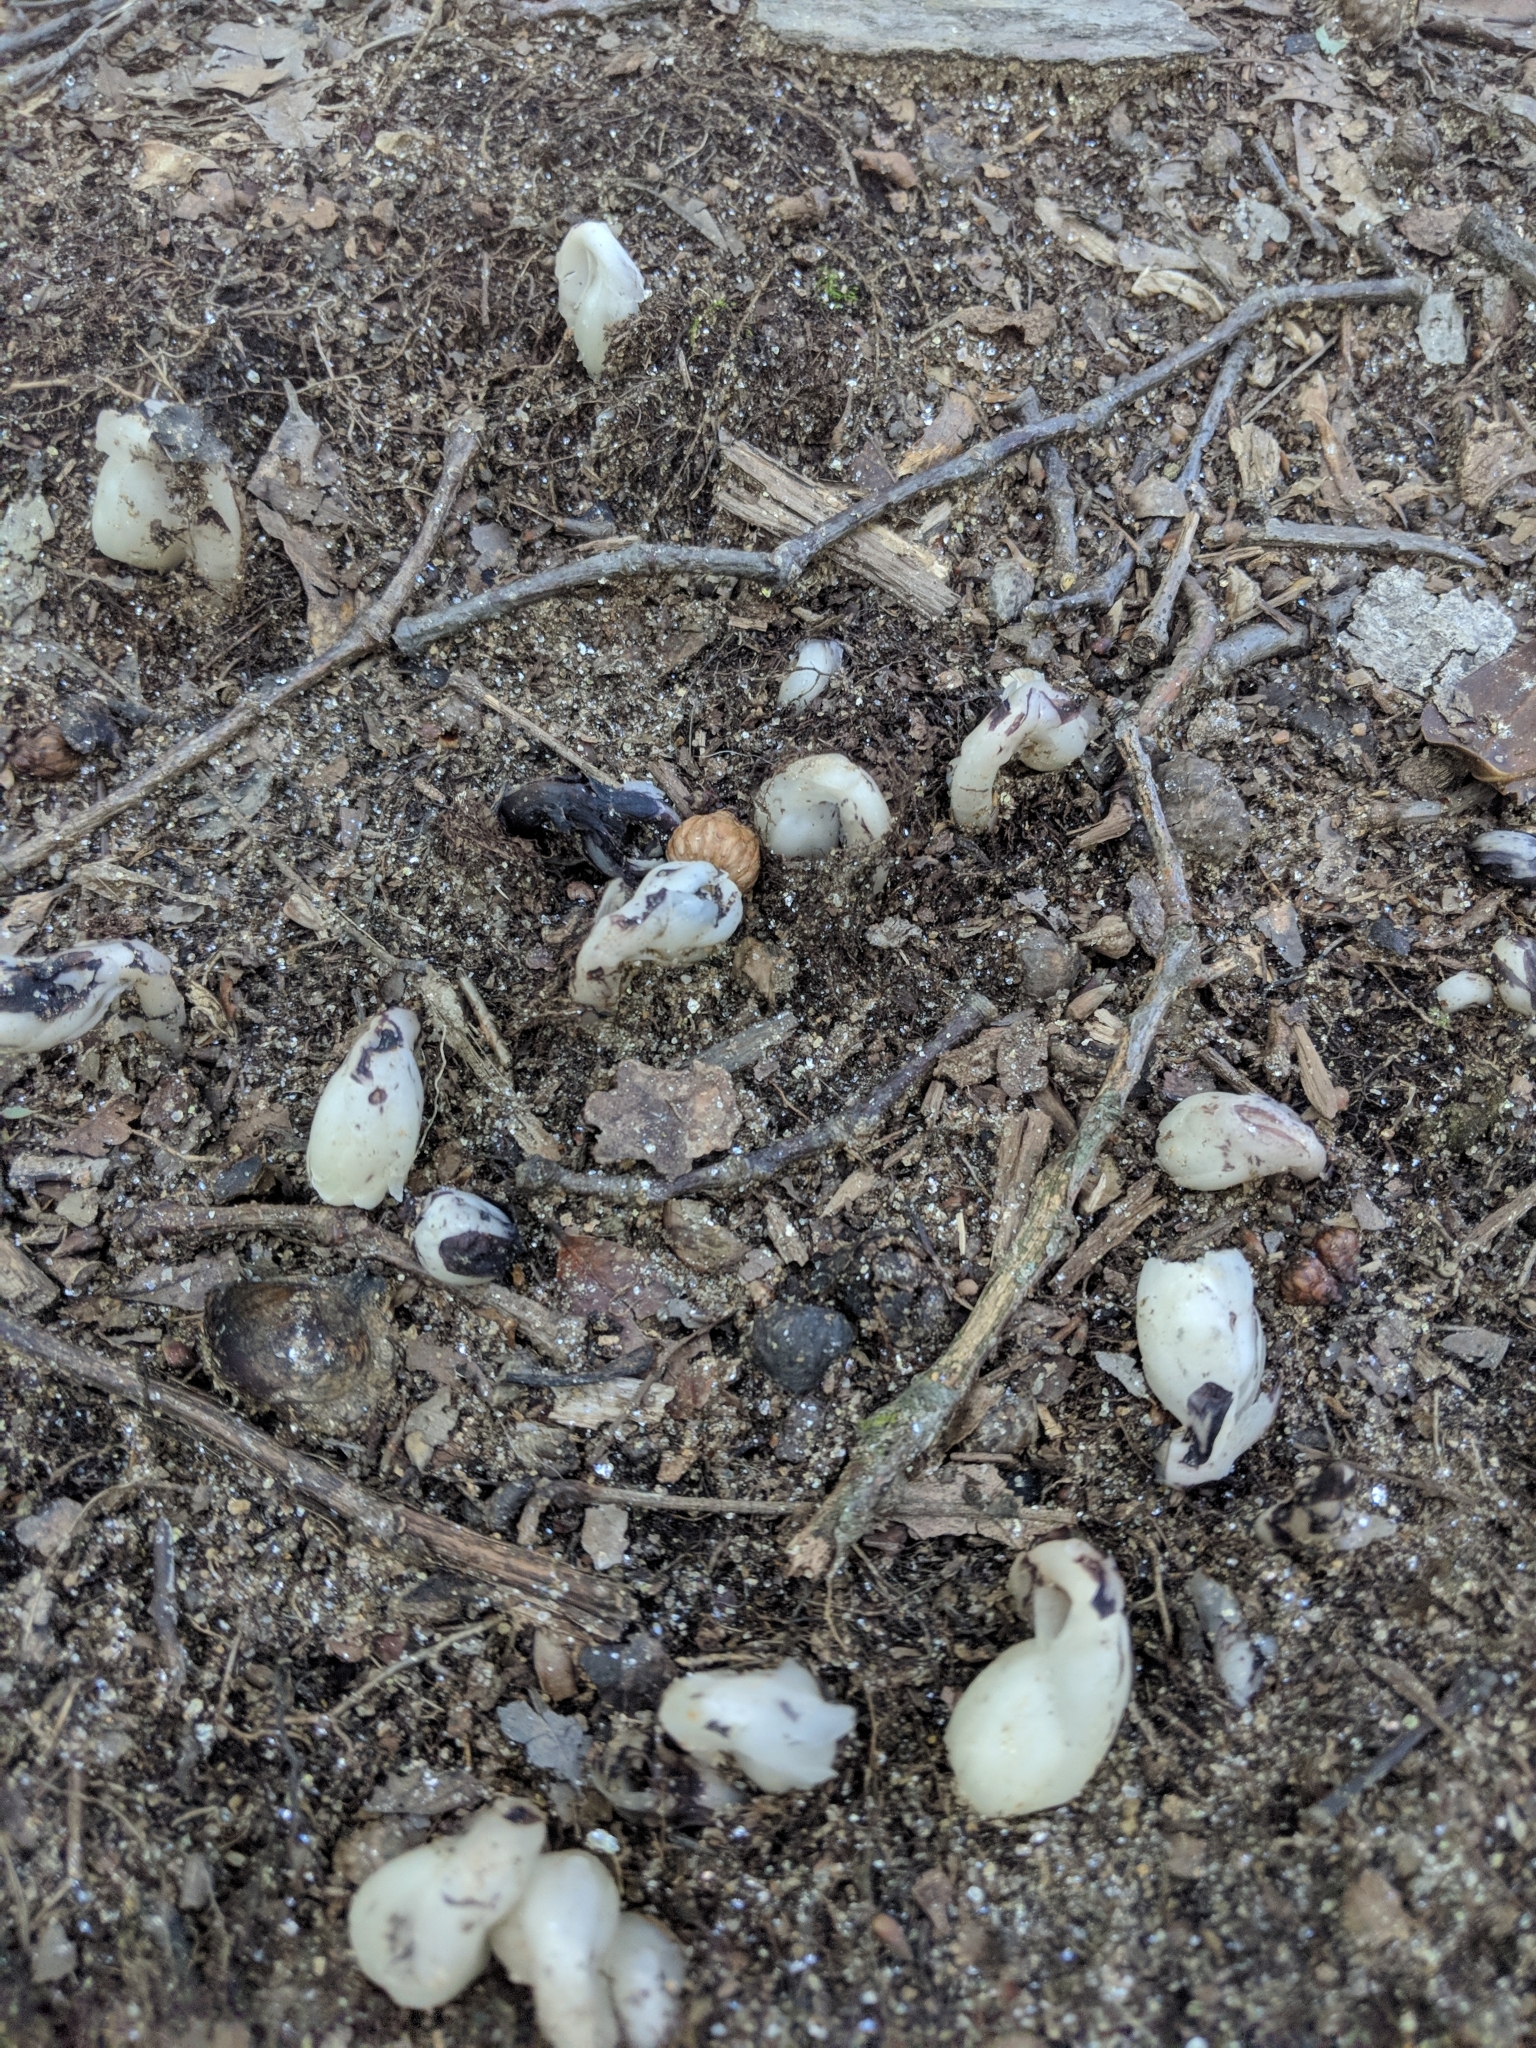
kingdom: Plantae
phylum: Tracheophyta
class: Magnoliopsida
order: Ericales
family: Ericaceae
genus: Monotropa
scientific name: Monotropa uniflora
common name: Convulsion root
